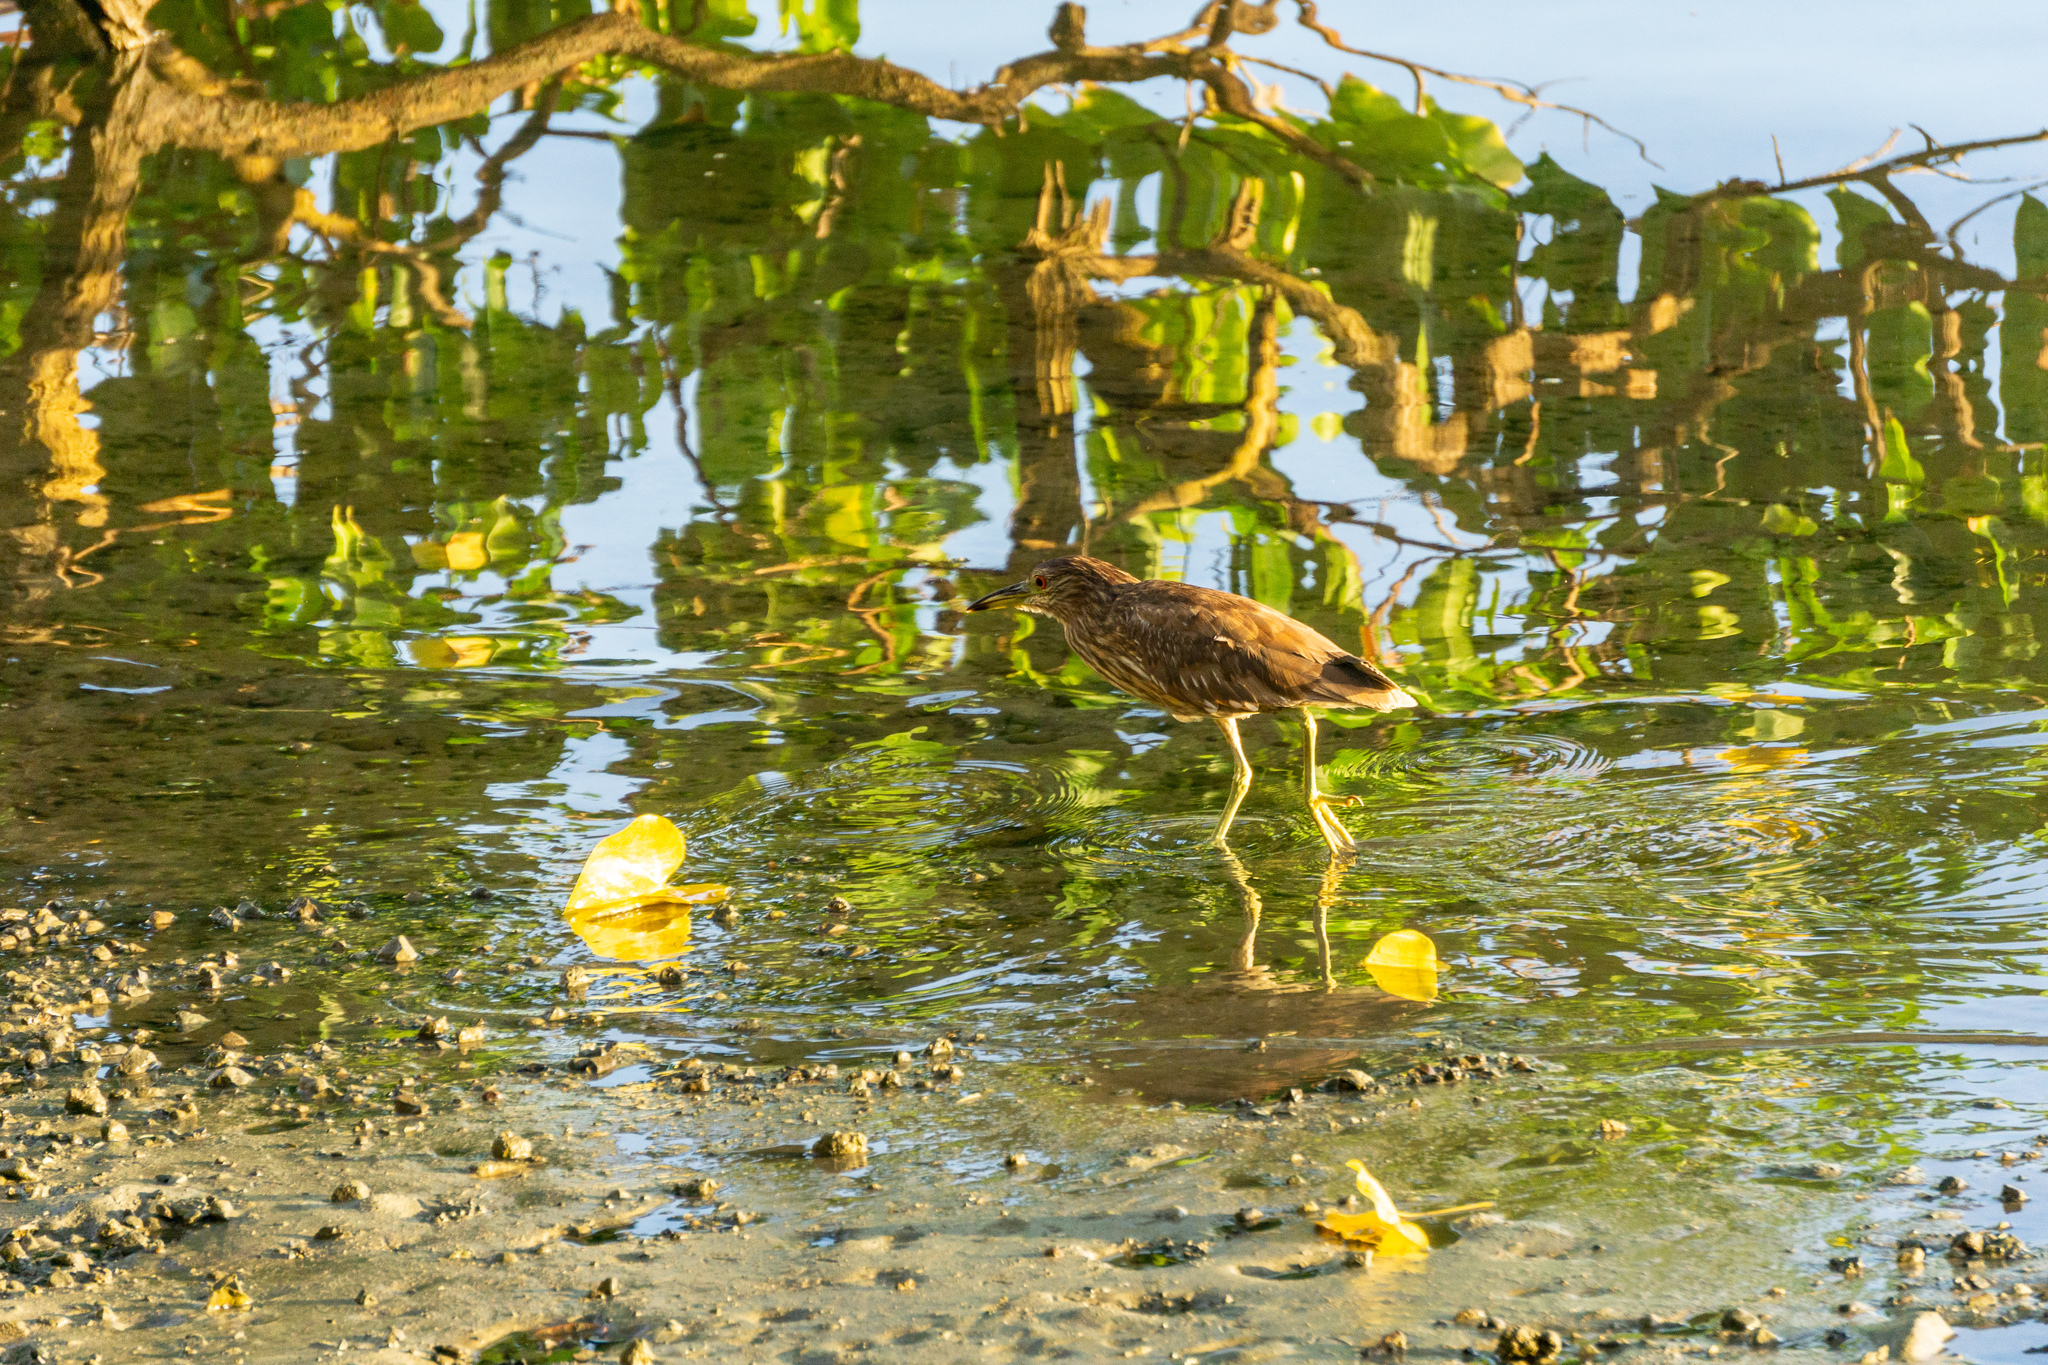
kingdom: Animalia
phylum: Chordata
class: Aves
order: Pelecaniformes
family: Ardeidae
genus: Nycticorax
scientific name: Nycticorax nycticorax
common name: Black-crowned night heron
